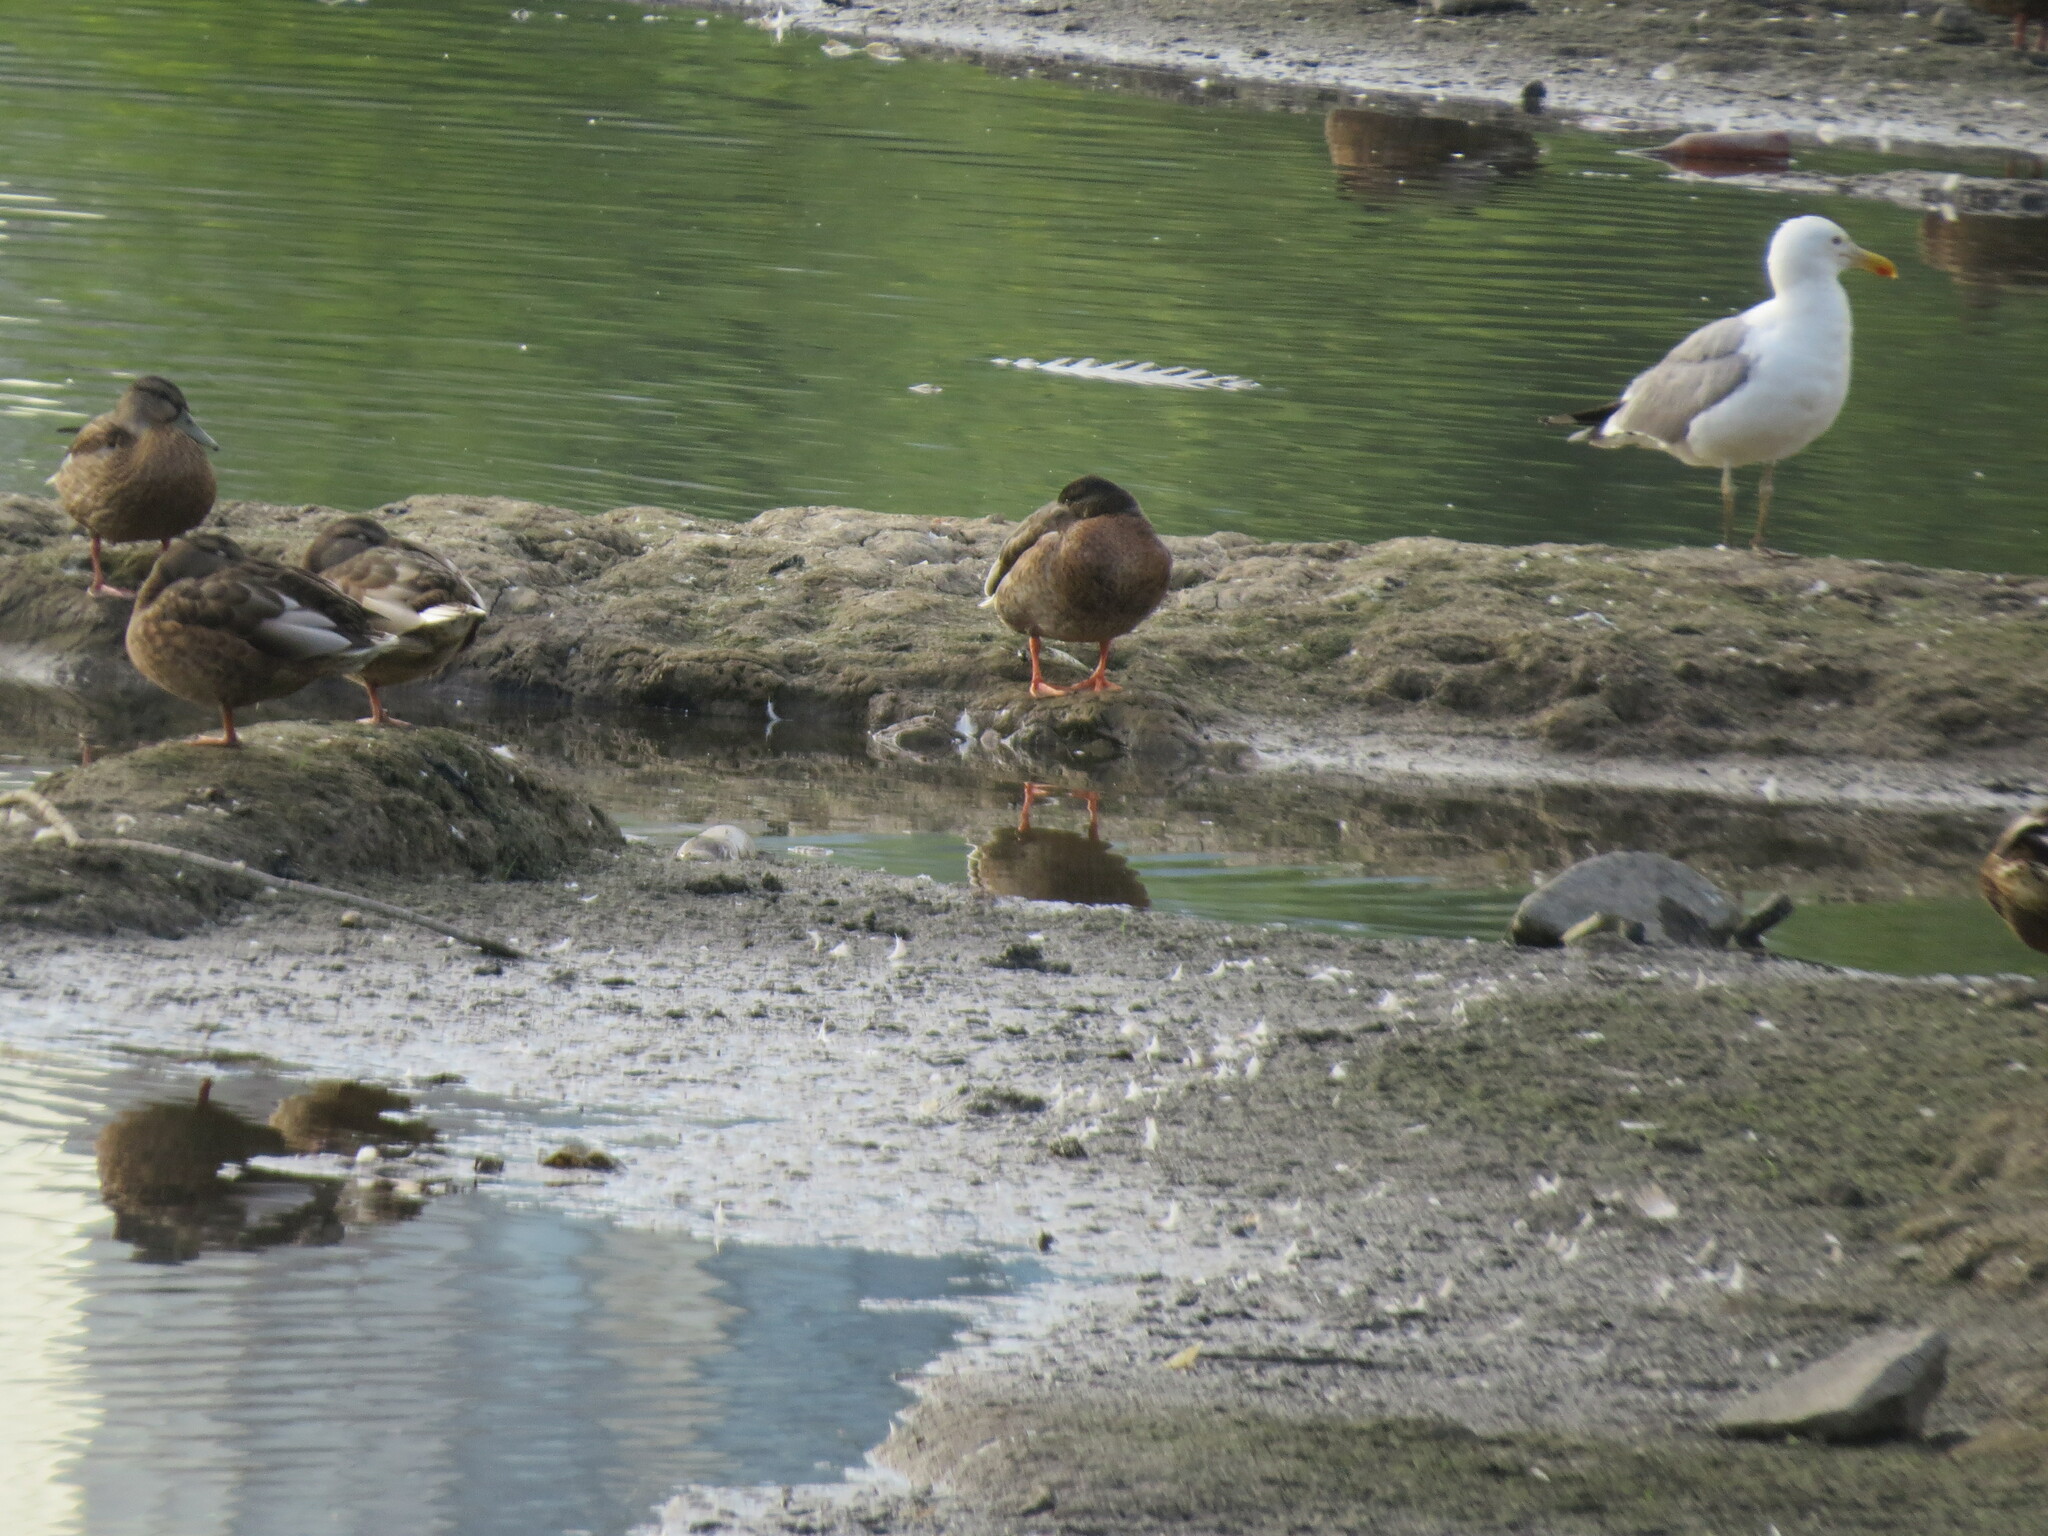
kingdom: Animalia
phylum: Chordata
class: Aves
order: Anseriformes
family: Anatidae
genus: Anas
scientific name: Anas platyrhynchos
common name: Mallard
